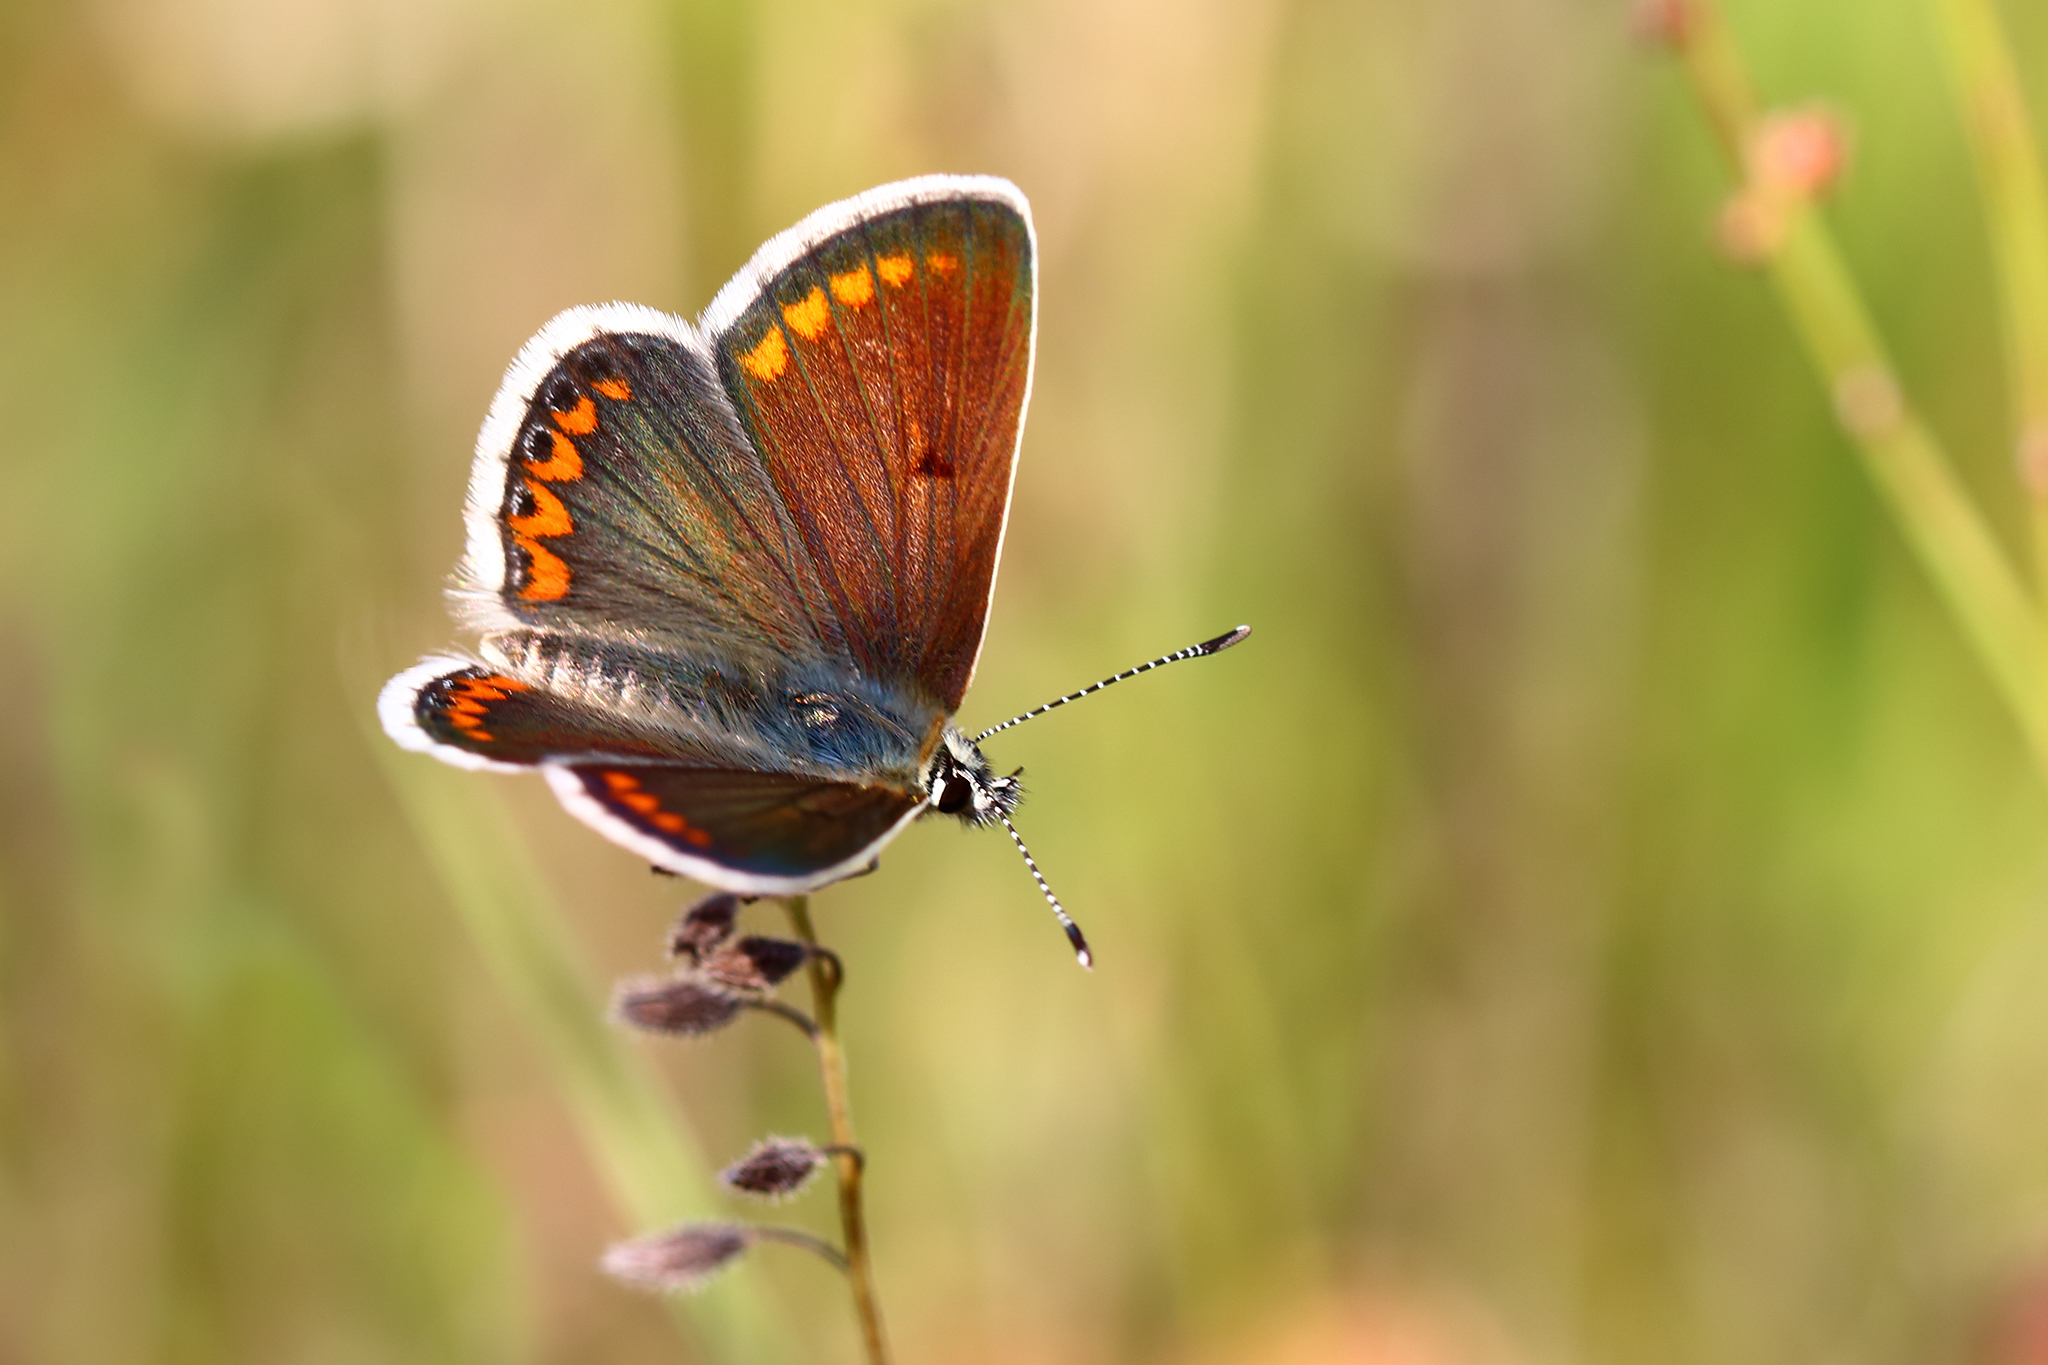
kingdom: Animalia
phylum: Arthropoda
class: Insecta
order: Lepidoptera
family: Lycaenidae
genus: Aricia
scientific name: Aricia agestis
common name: Brown argus
